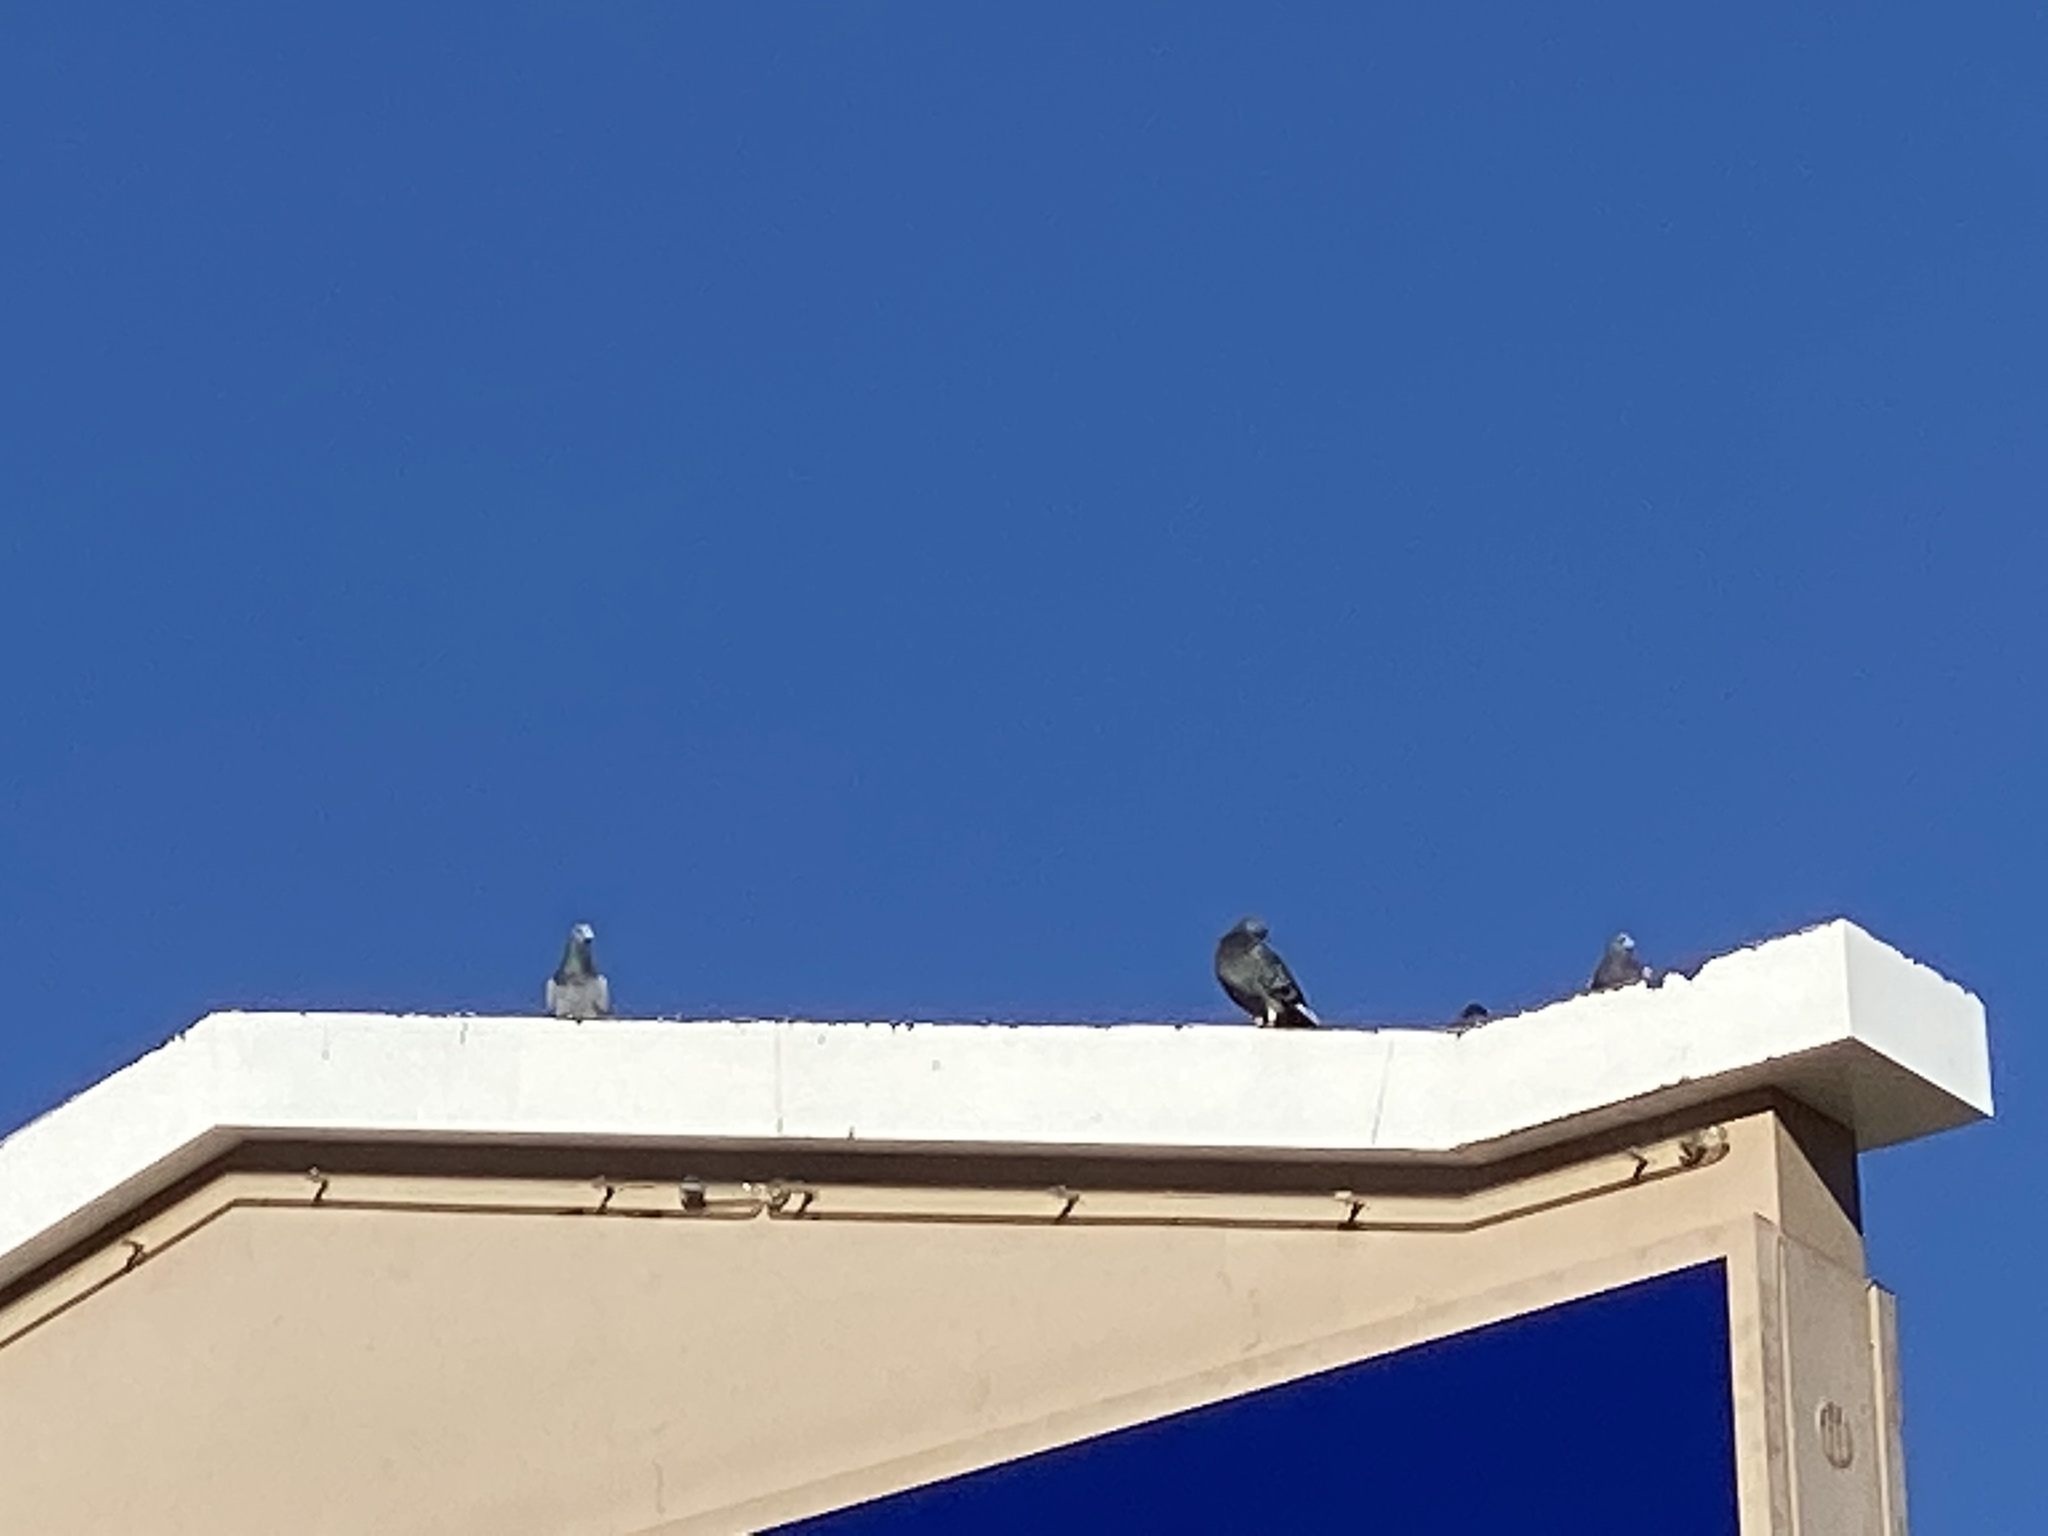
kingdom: Animalia
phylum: Chordata
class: Aves
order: Columbiformes
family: Columbidae
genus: Columba
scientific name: Columba livia
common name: Rock pigeon
